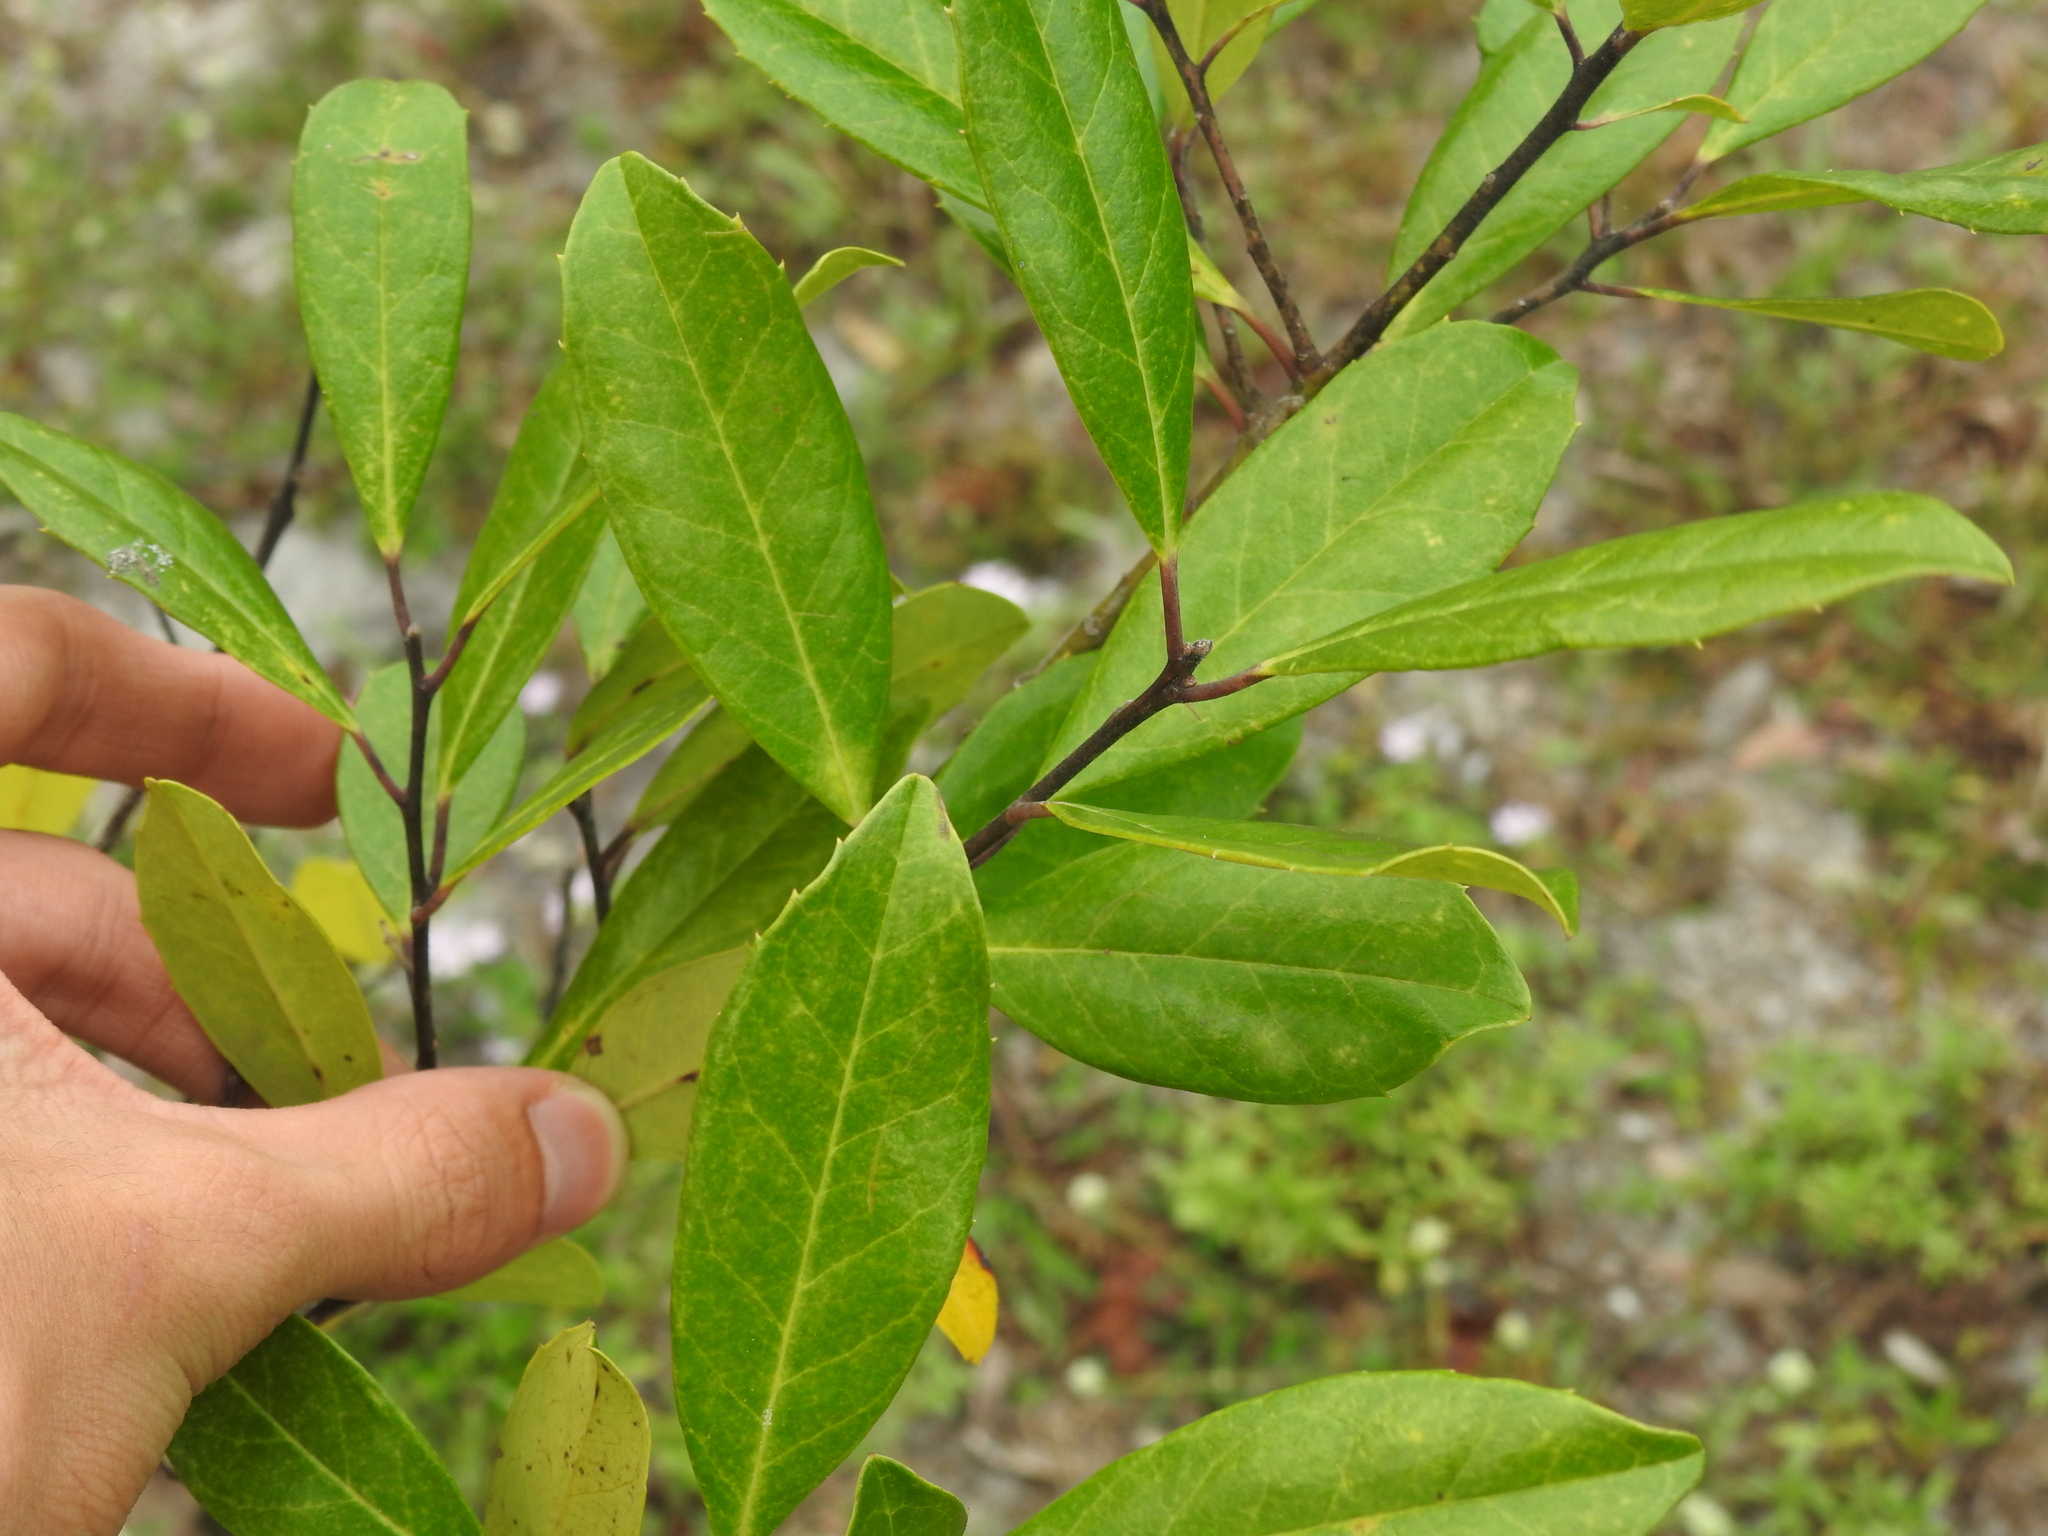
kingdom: Plantae
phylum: Tracheophyta
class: Magnoliopsida
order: Aquifoliales
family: Aquifoliaceae
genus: Ilex
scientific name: Ilex cassine
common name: Dahoon
